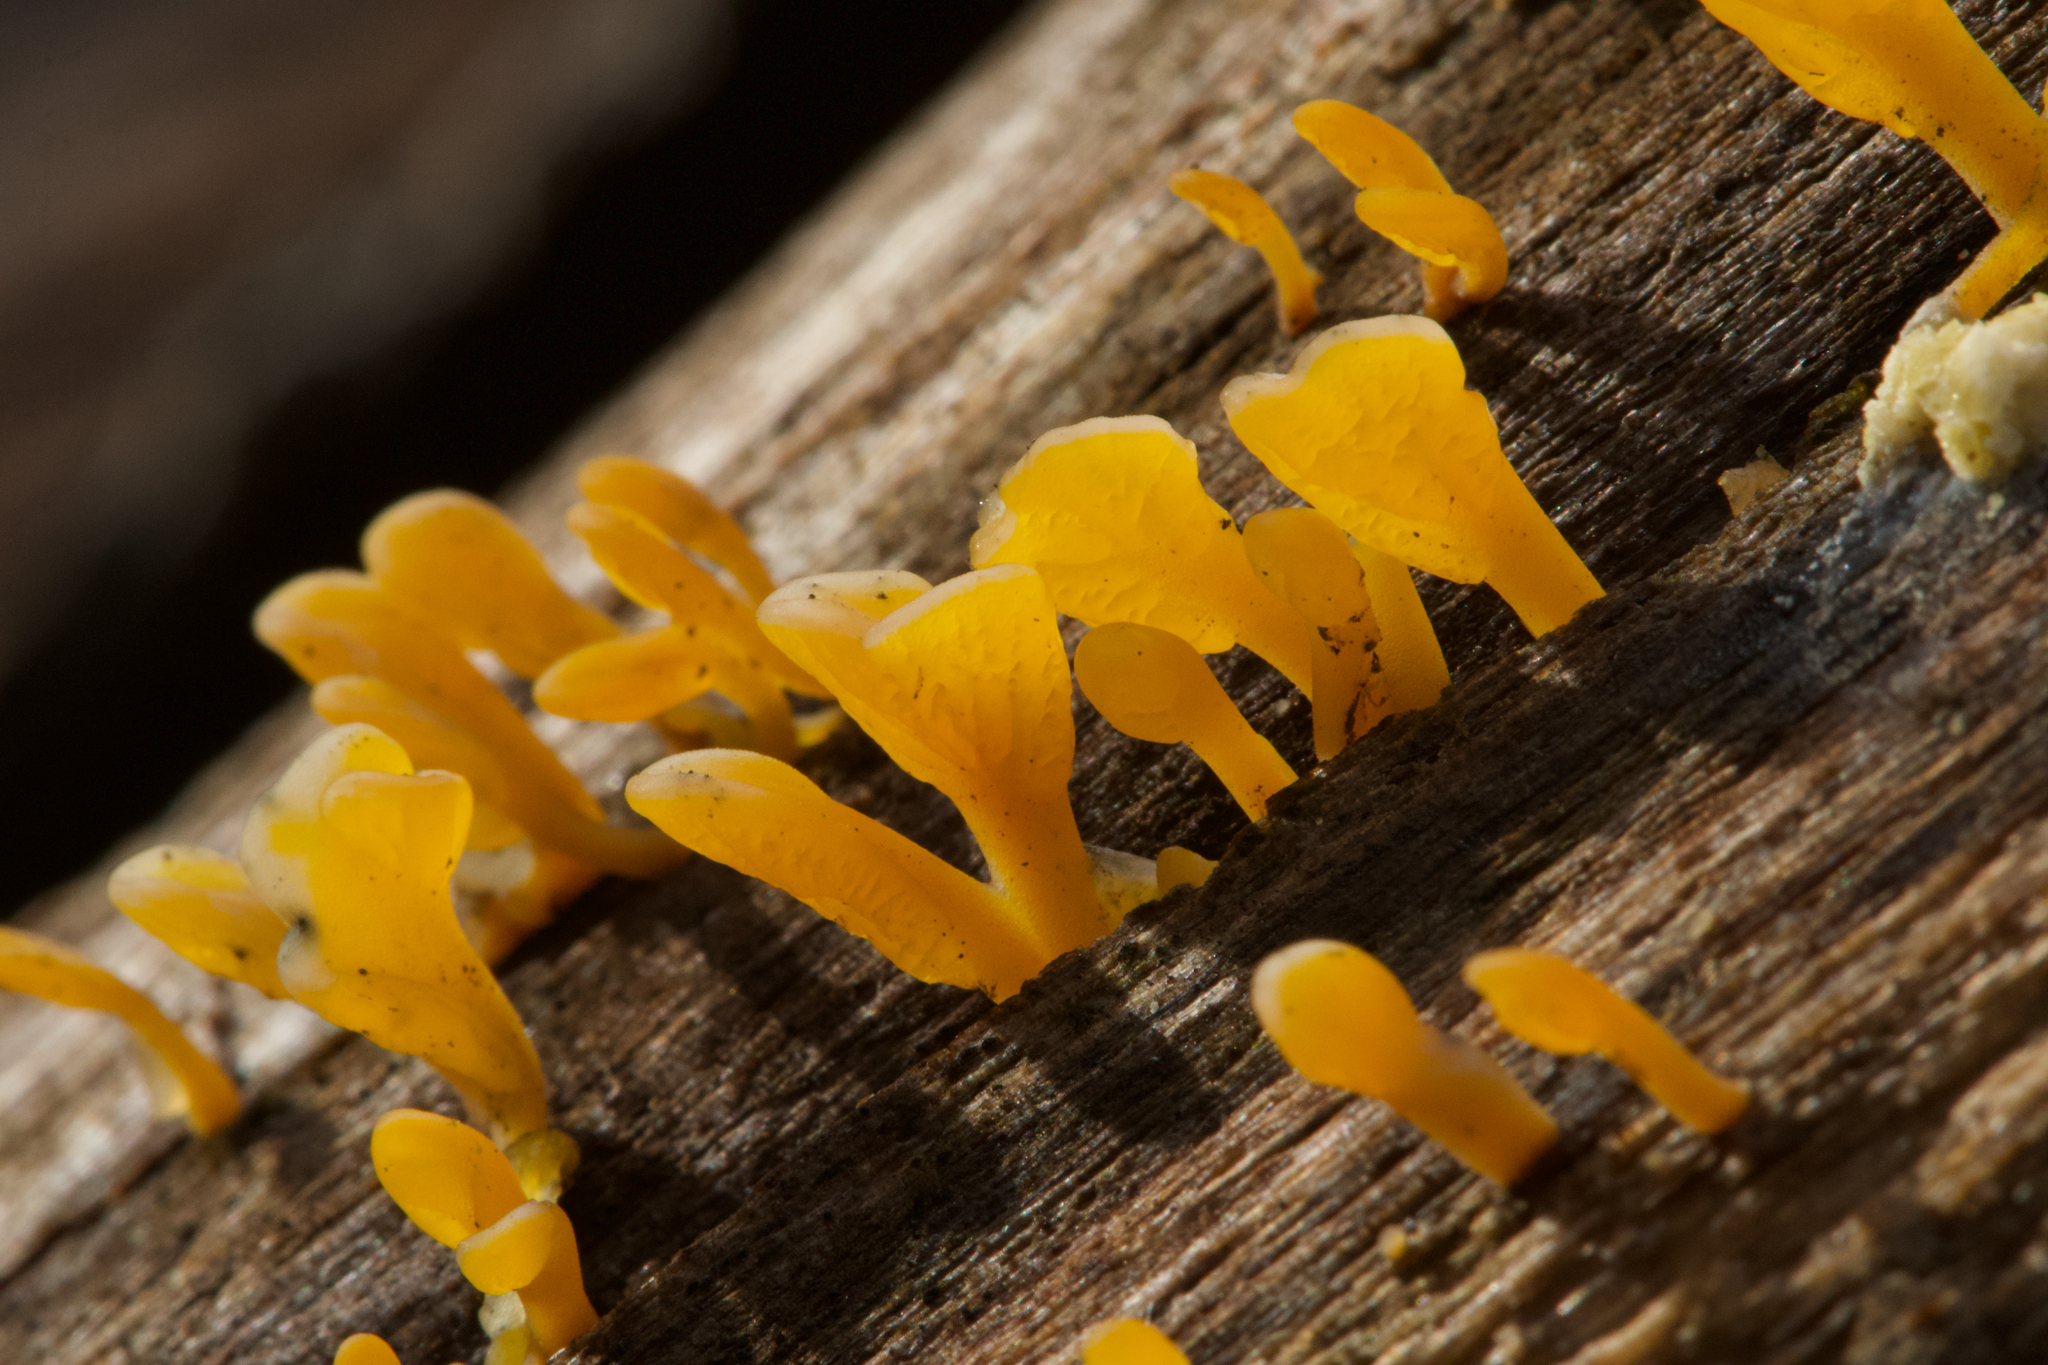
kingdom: Fungi
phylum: Basidiomycota
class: Dacrymycetes
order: Dacrymycetales
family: Dacrymycetaceae
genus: Dacrymyces
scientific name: Dacrymyces spathularius
